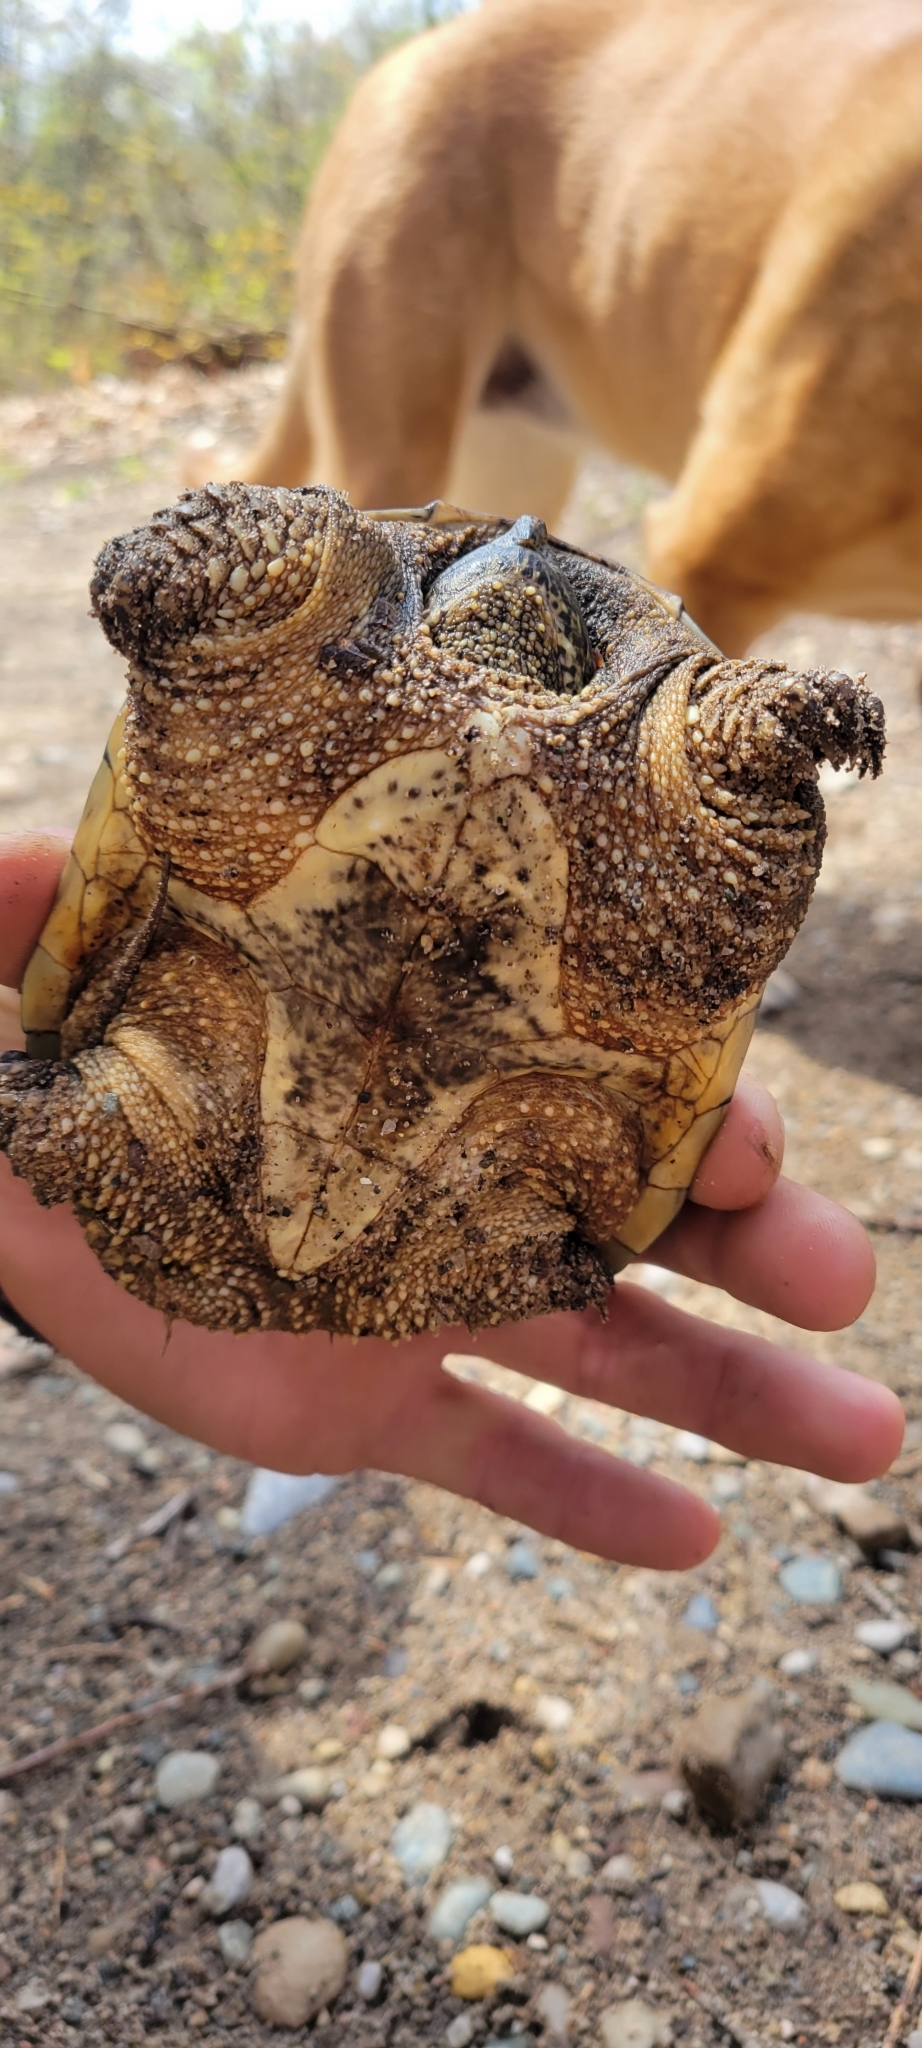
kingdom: Animalia
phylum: Chordata
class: Testudines
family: Chelydridae
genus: Chelydra
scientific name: Chelydra serpentina
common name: Common snapping turtle
